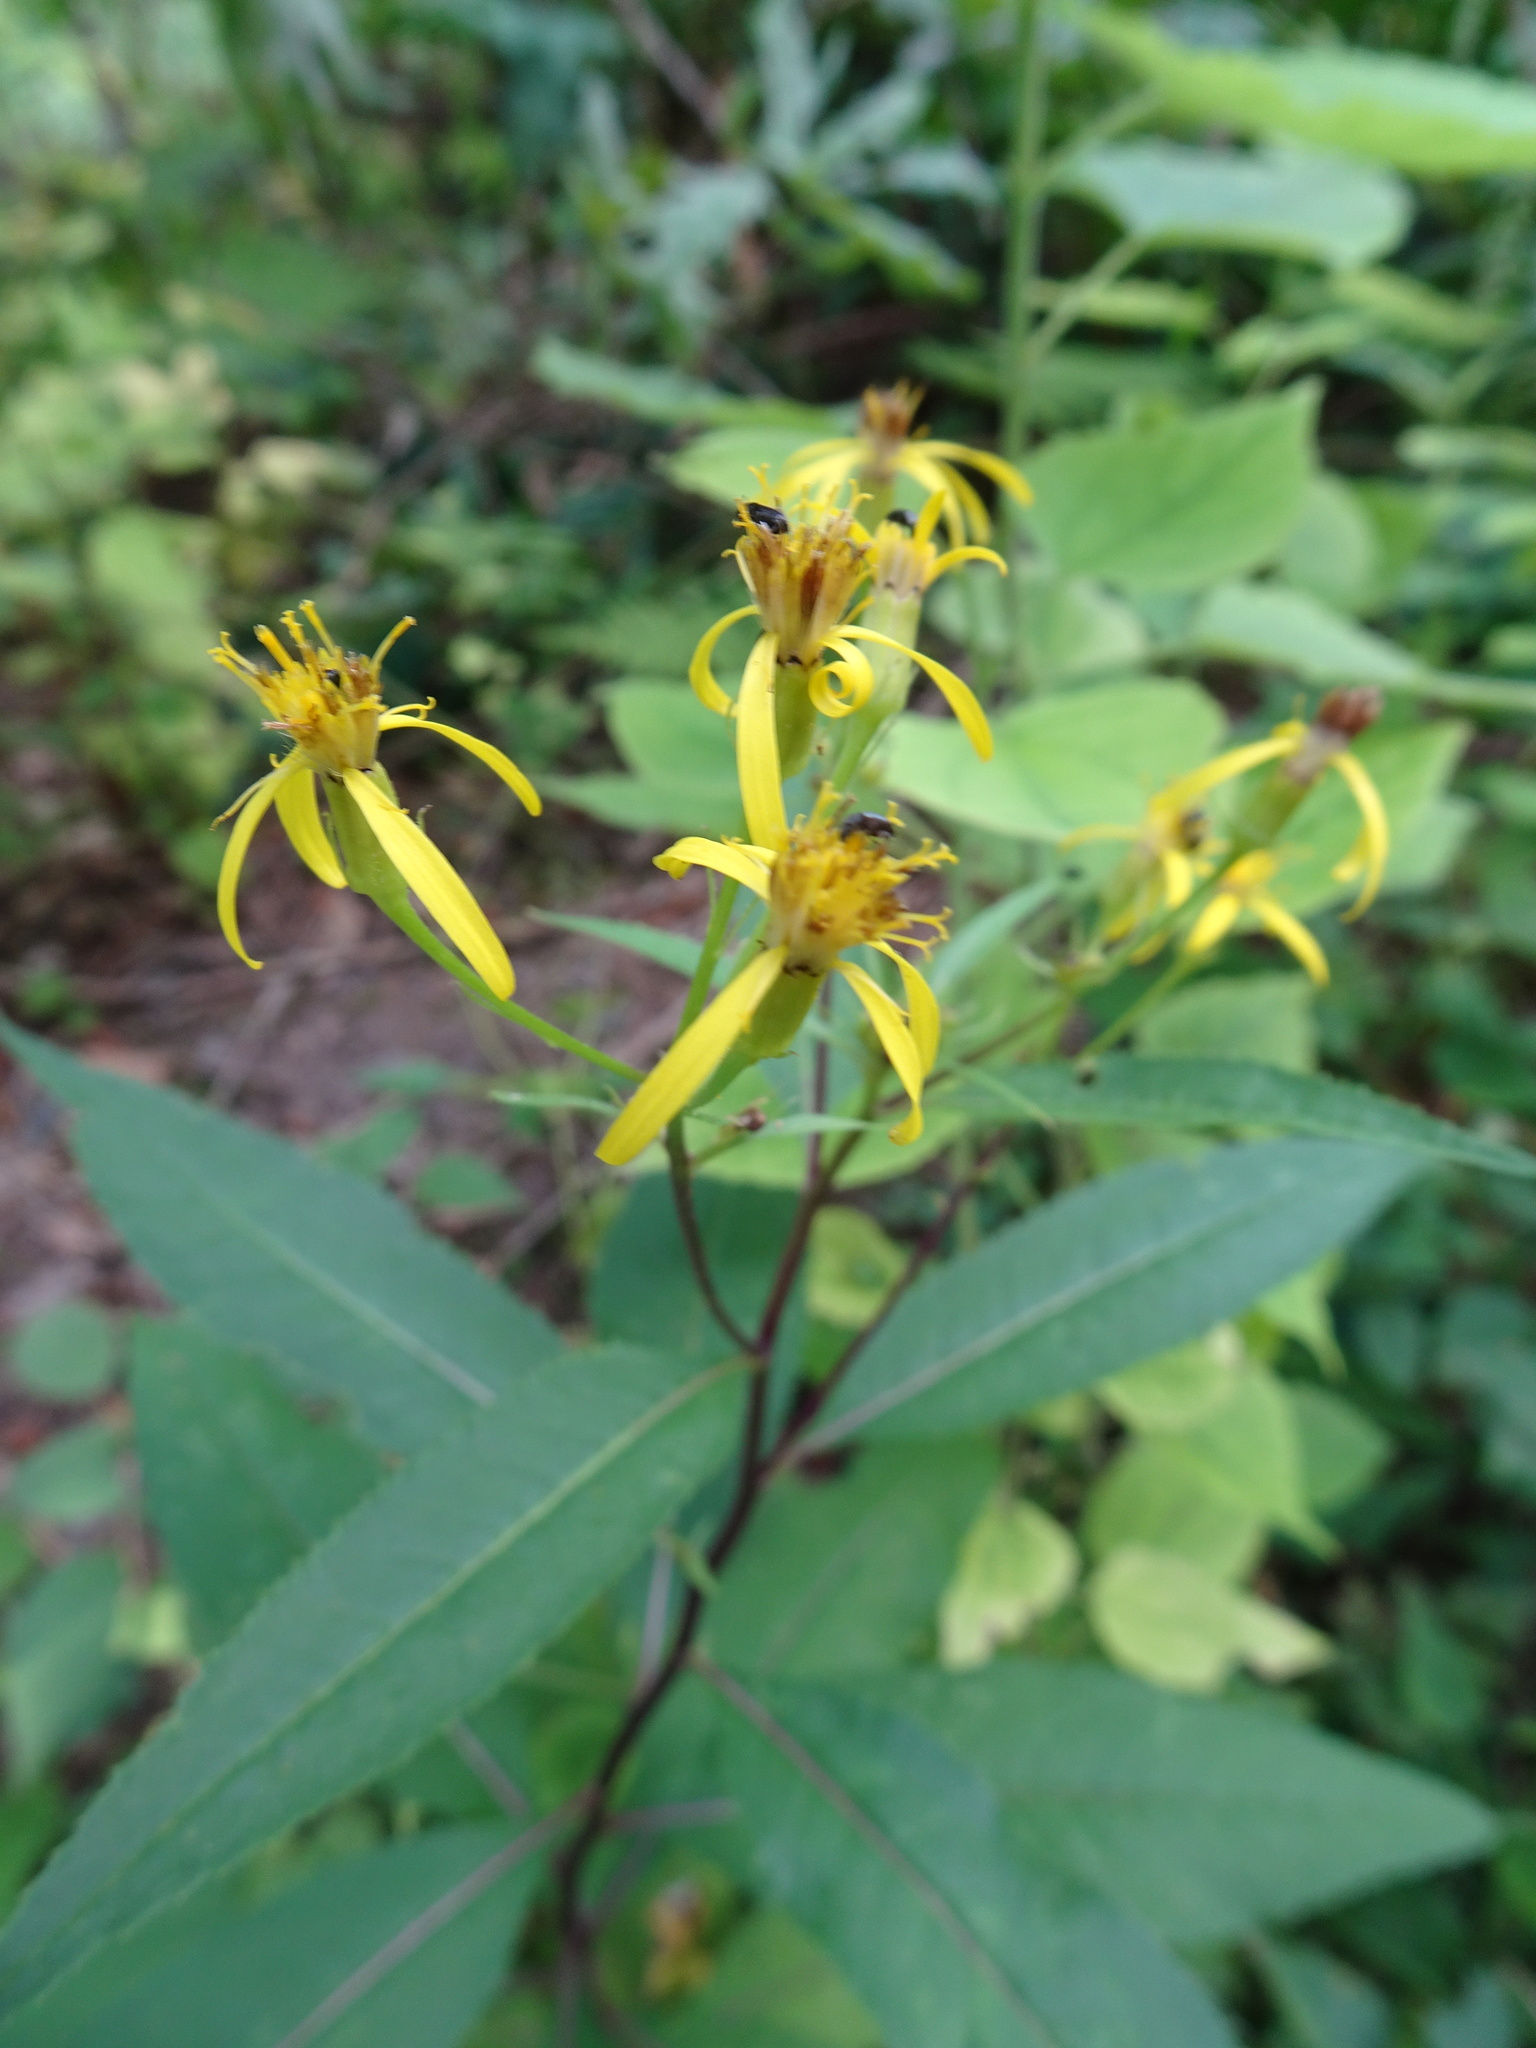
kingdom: Plantae
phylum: Tracheophyta
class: Magnoliopsida
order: Asterales
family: Asteraceae
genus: Senecio
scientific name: Senecio ovatus
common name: Wood ragwort
